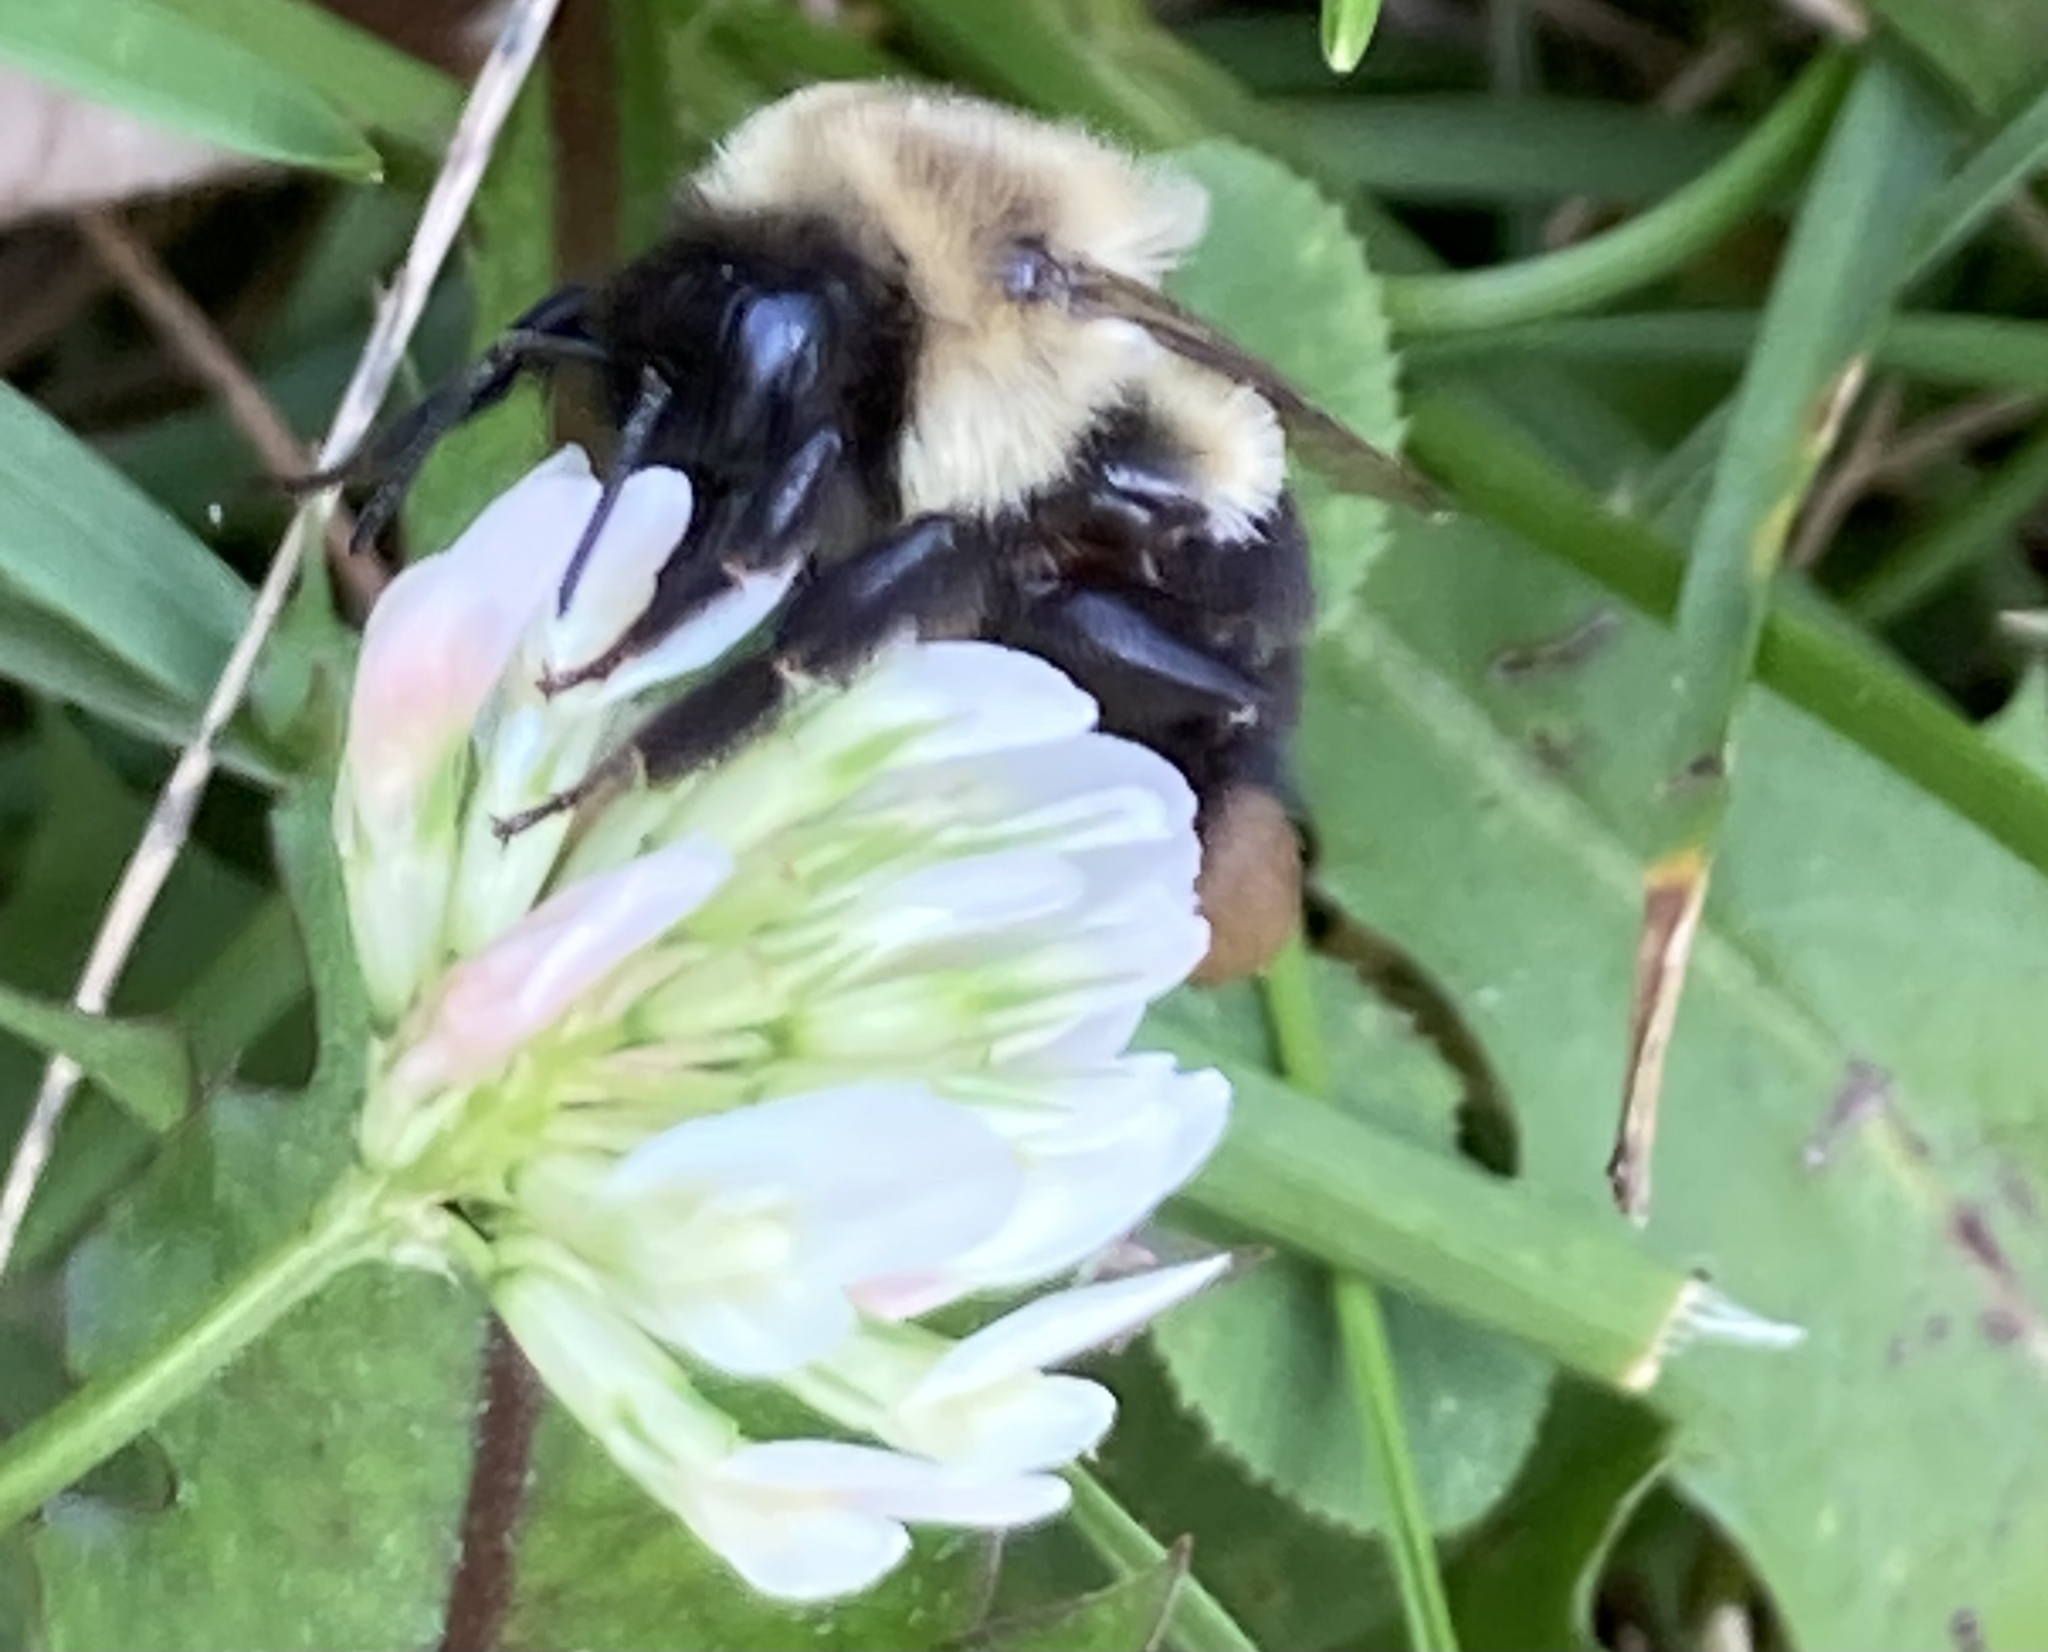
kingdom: Animalia
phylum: Arthropoda
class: Insecta
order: Hymenoptera
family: Apidae
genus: Bombus
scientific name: Bombus impatiens
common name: Common eastern bumble bee
